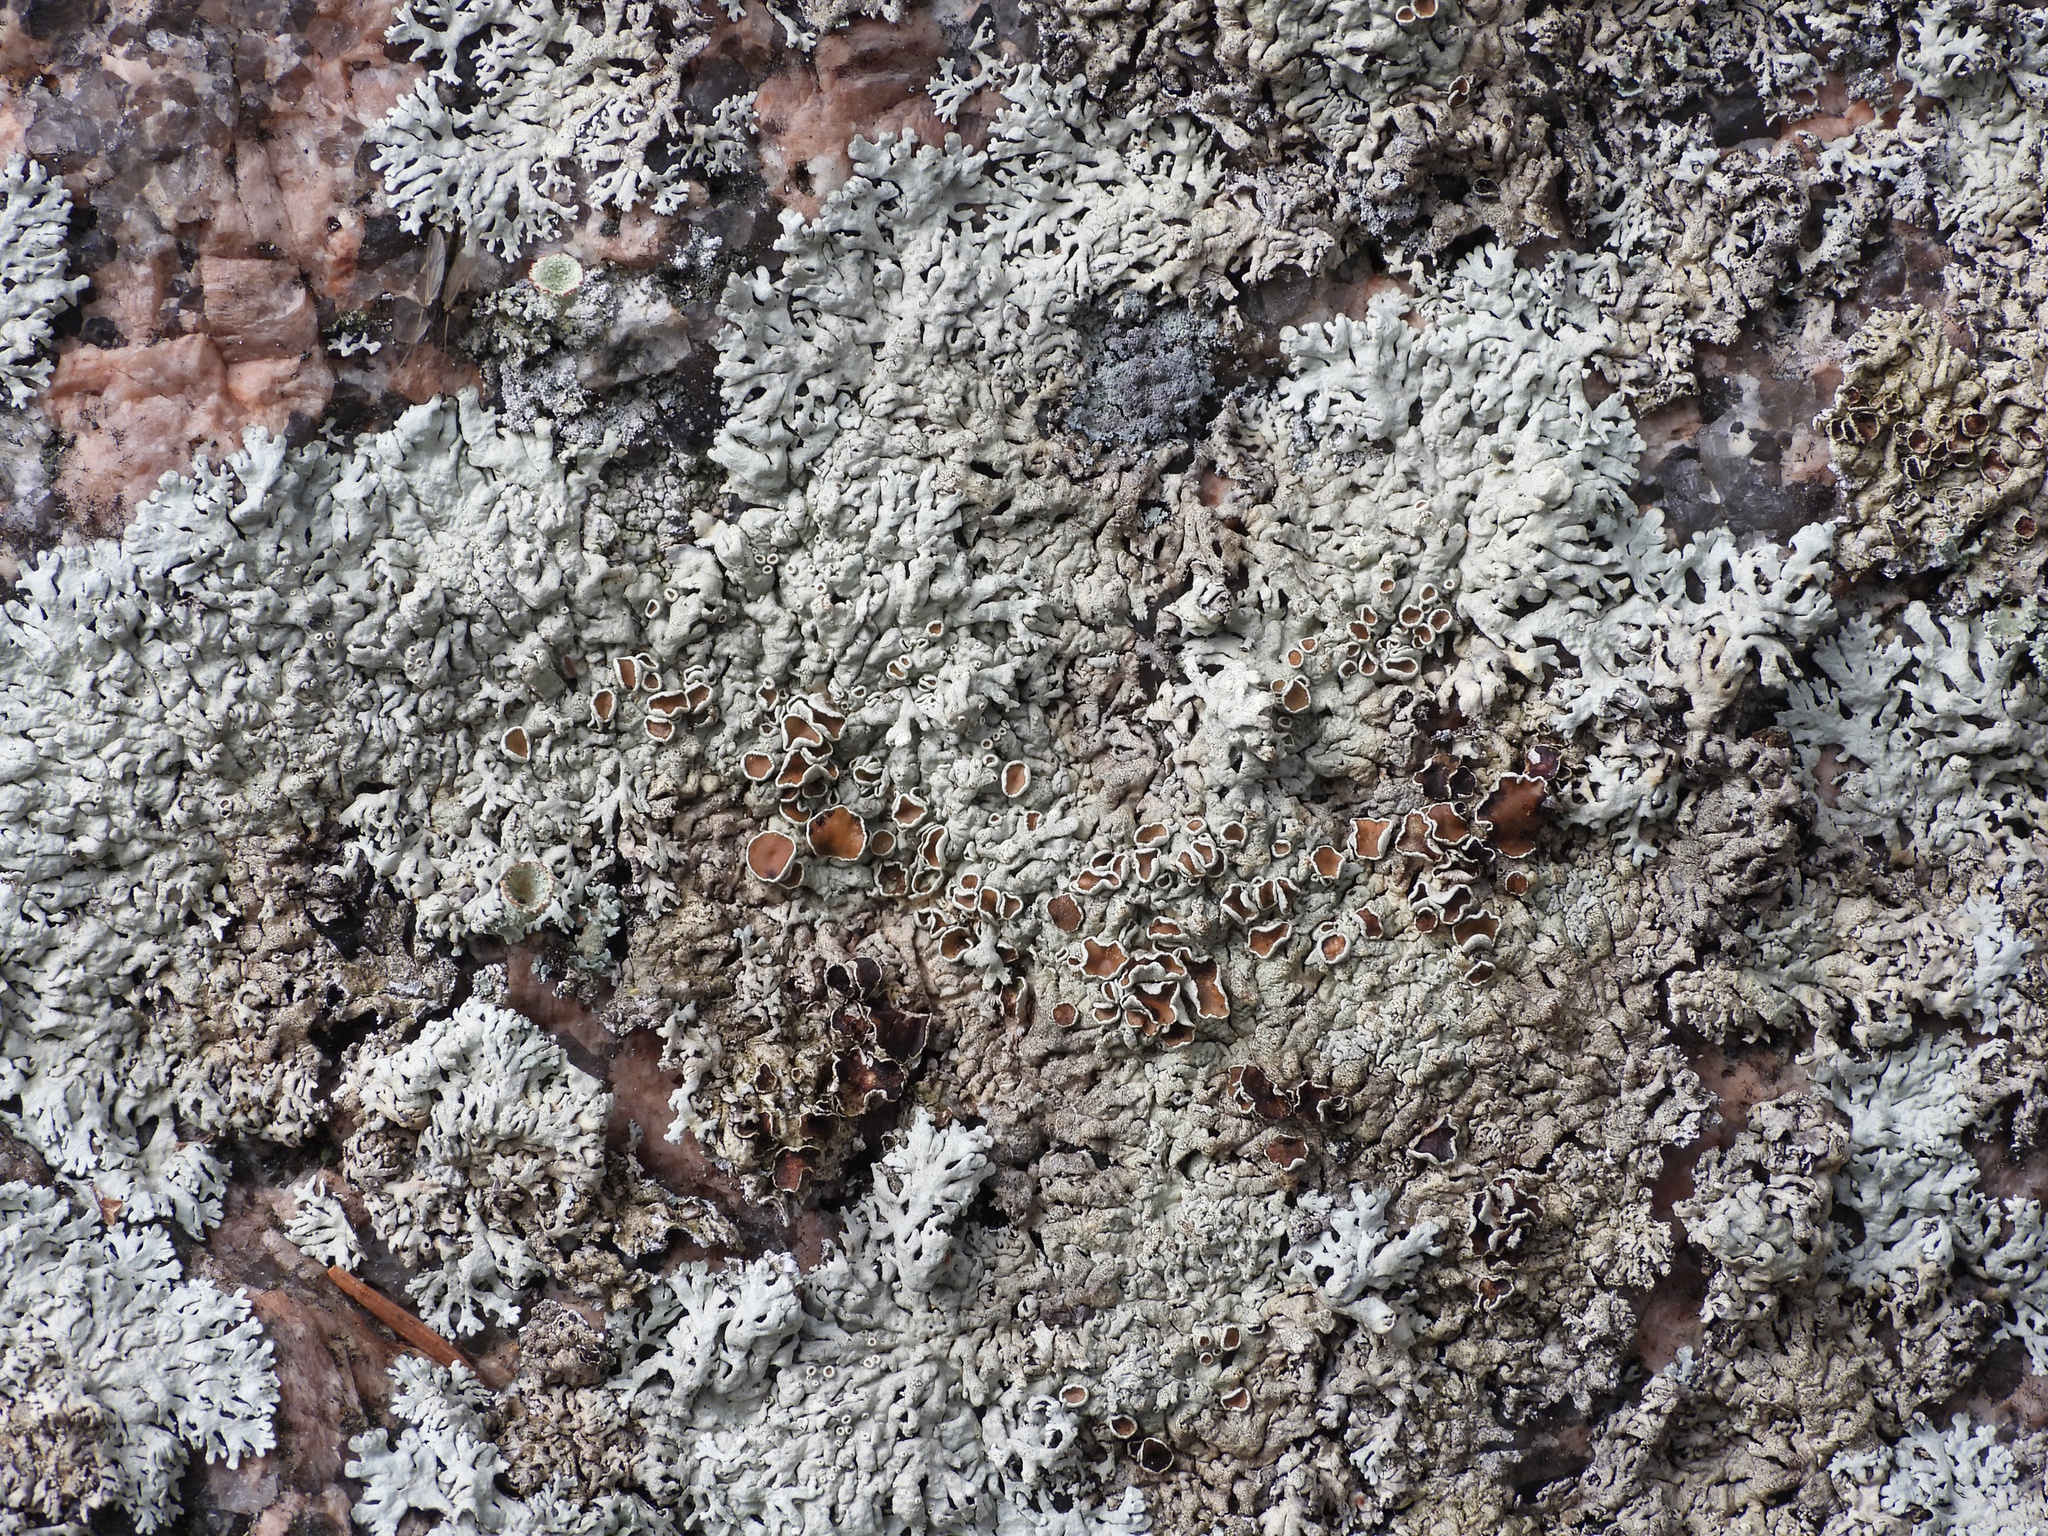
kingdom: Fungi
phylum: Ascomycota
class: Lecanoromycetes
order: Lecanorales
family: Parmeliaceae
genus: Arctoparmelia
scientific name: Arctoparmelia centrifuga
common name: Concentric ring lichen
